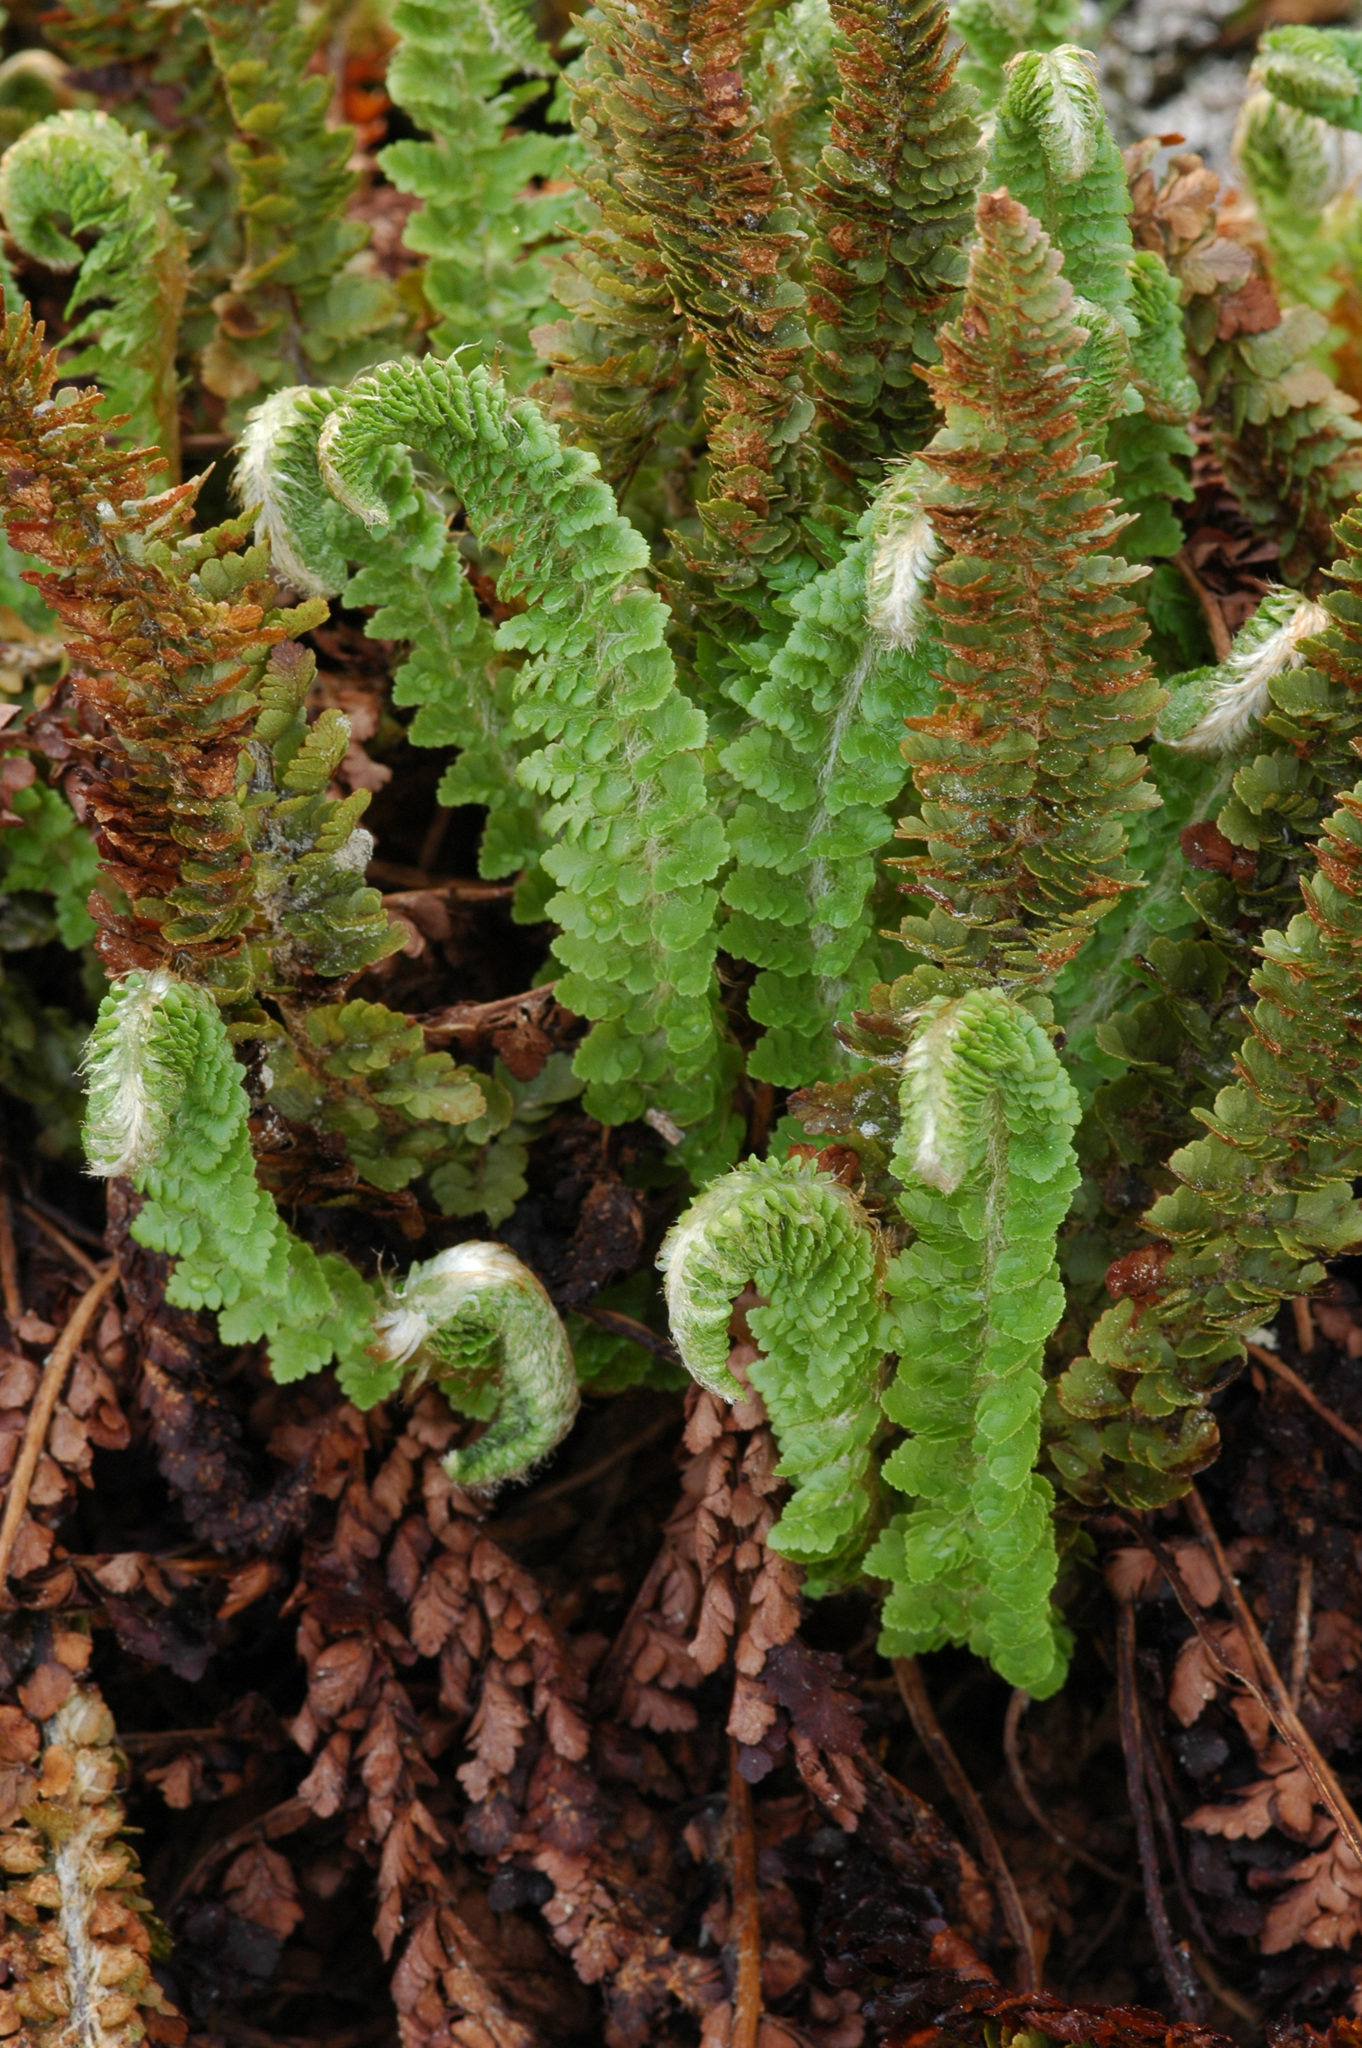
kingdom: Plantae
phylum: Tracheophyta
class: Polypodiopsida
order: Polypodiales
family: Dryopteridaceae
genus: Polystichum
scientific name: Polystichum lemmonii
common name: Lemmon's holly fern
